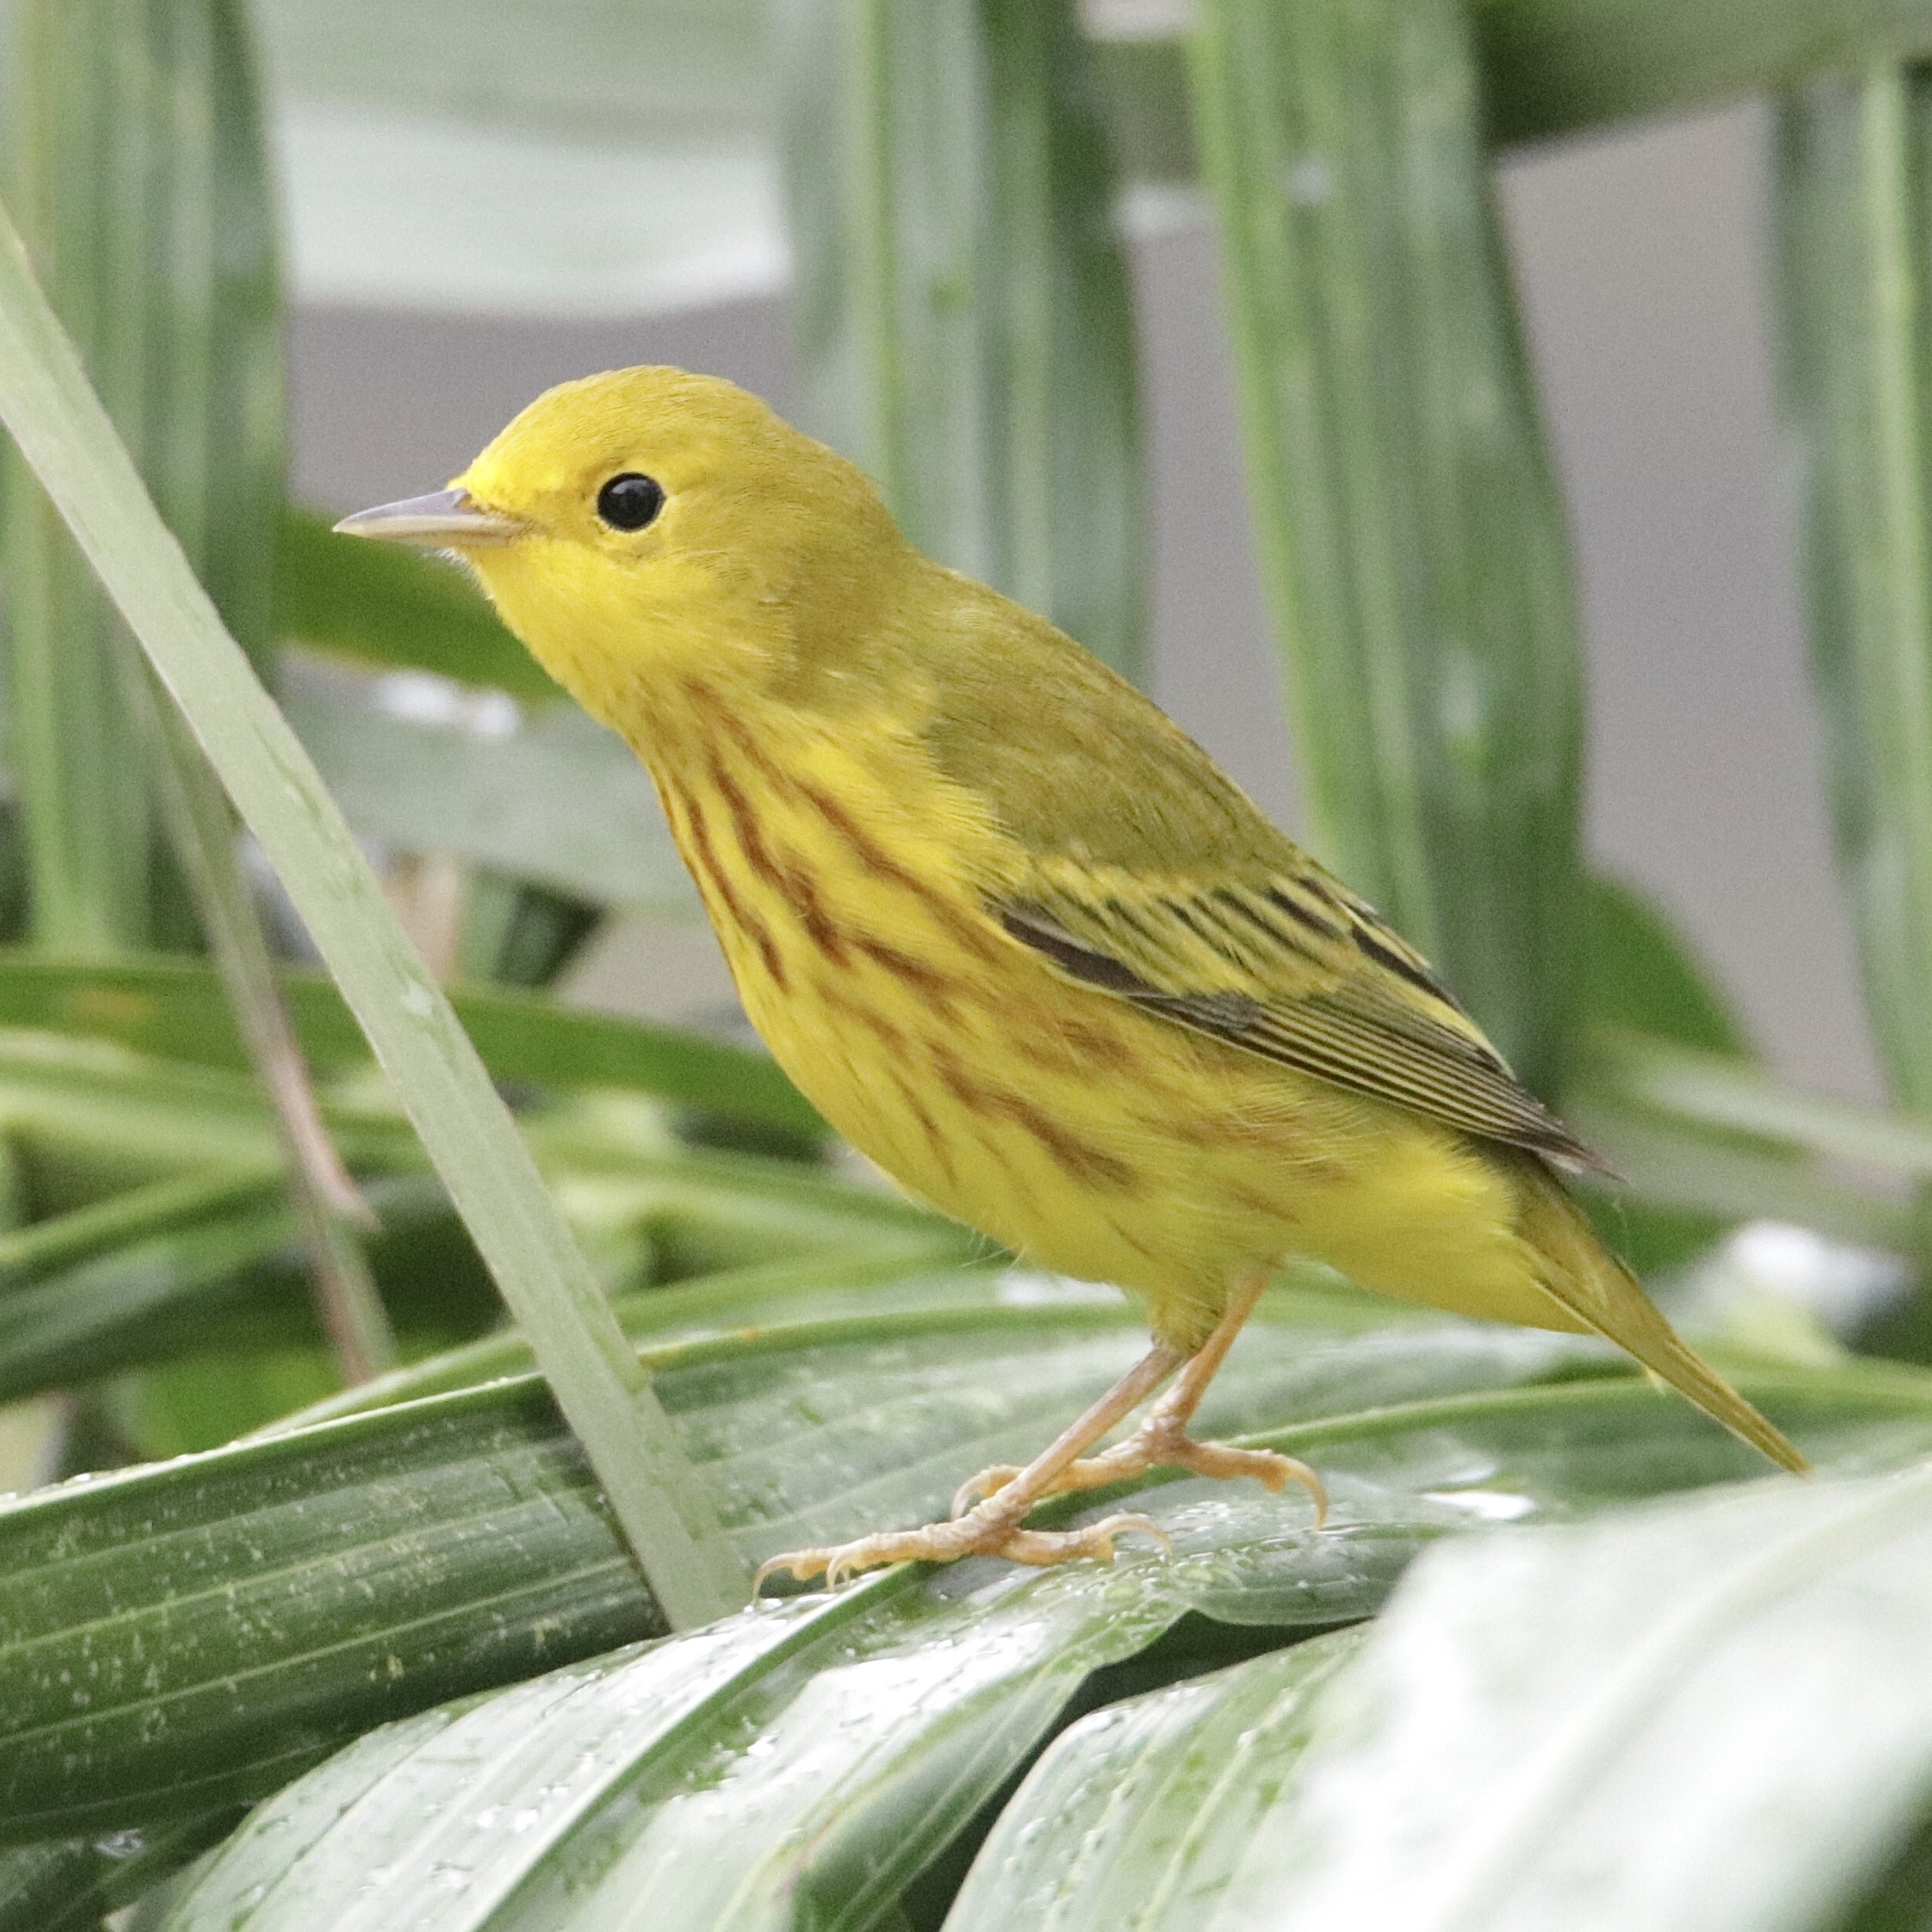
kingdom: Animalia
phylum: Chordata
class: Aves
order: Passeriformes
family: Parulidae
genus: Setophaga
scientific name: Setophaga petechia
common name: Yellow warbler
